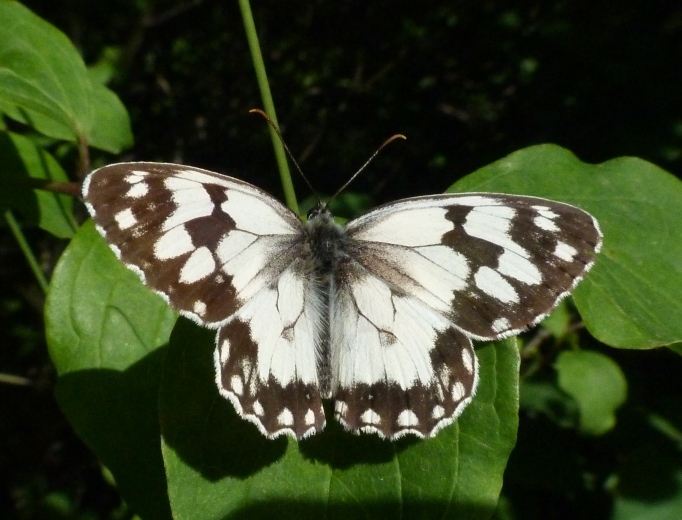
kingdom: Animalia
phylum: Arthropoda
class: Insecta
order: Lepidoptera
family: Nymphalidae
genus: Melanargia
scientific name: Melanargia lachesis
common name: Iberian marbled white
